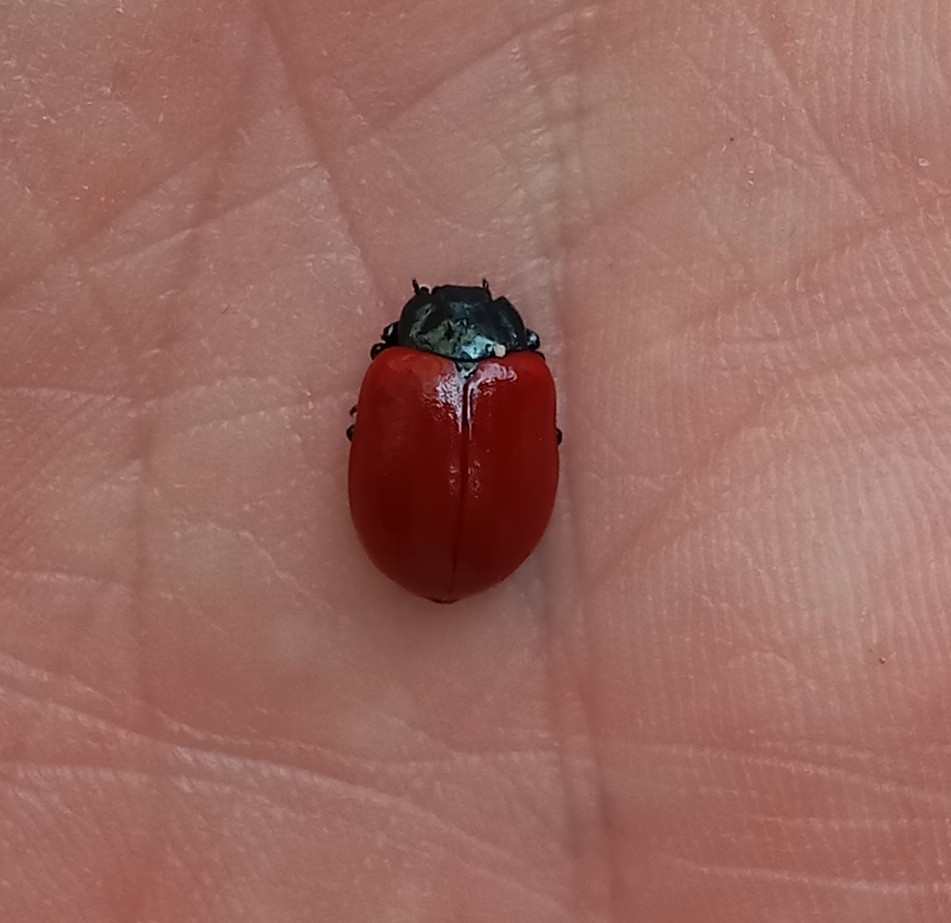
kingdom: Animalia
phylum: Arthropoda
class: Insecta
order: Coleoptera
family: Chrysomelidae
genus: Chrysomela
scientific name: Chrysomela populi
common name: Red poplar leaf beetle
